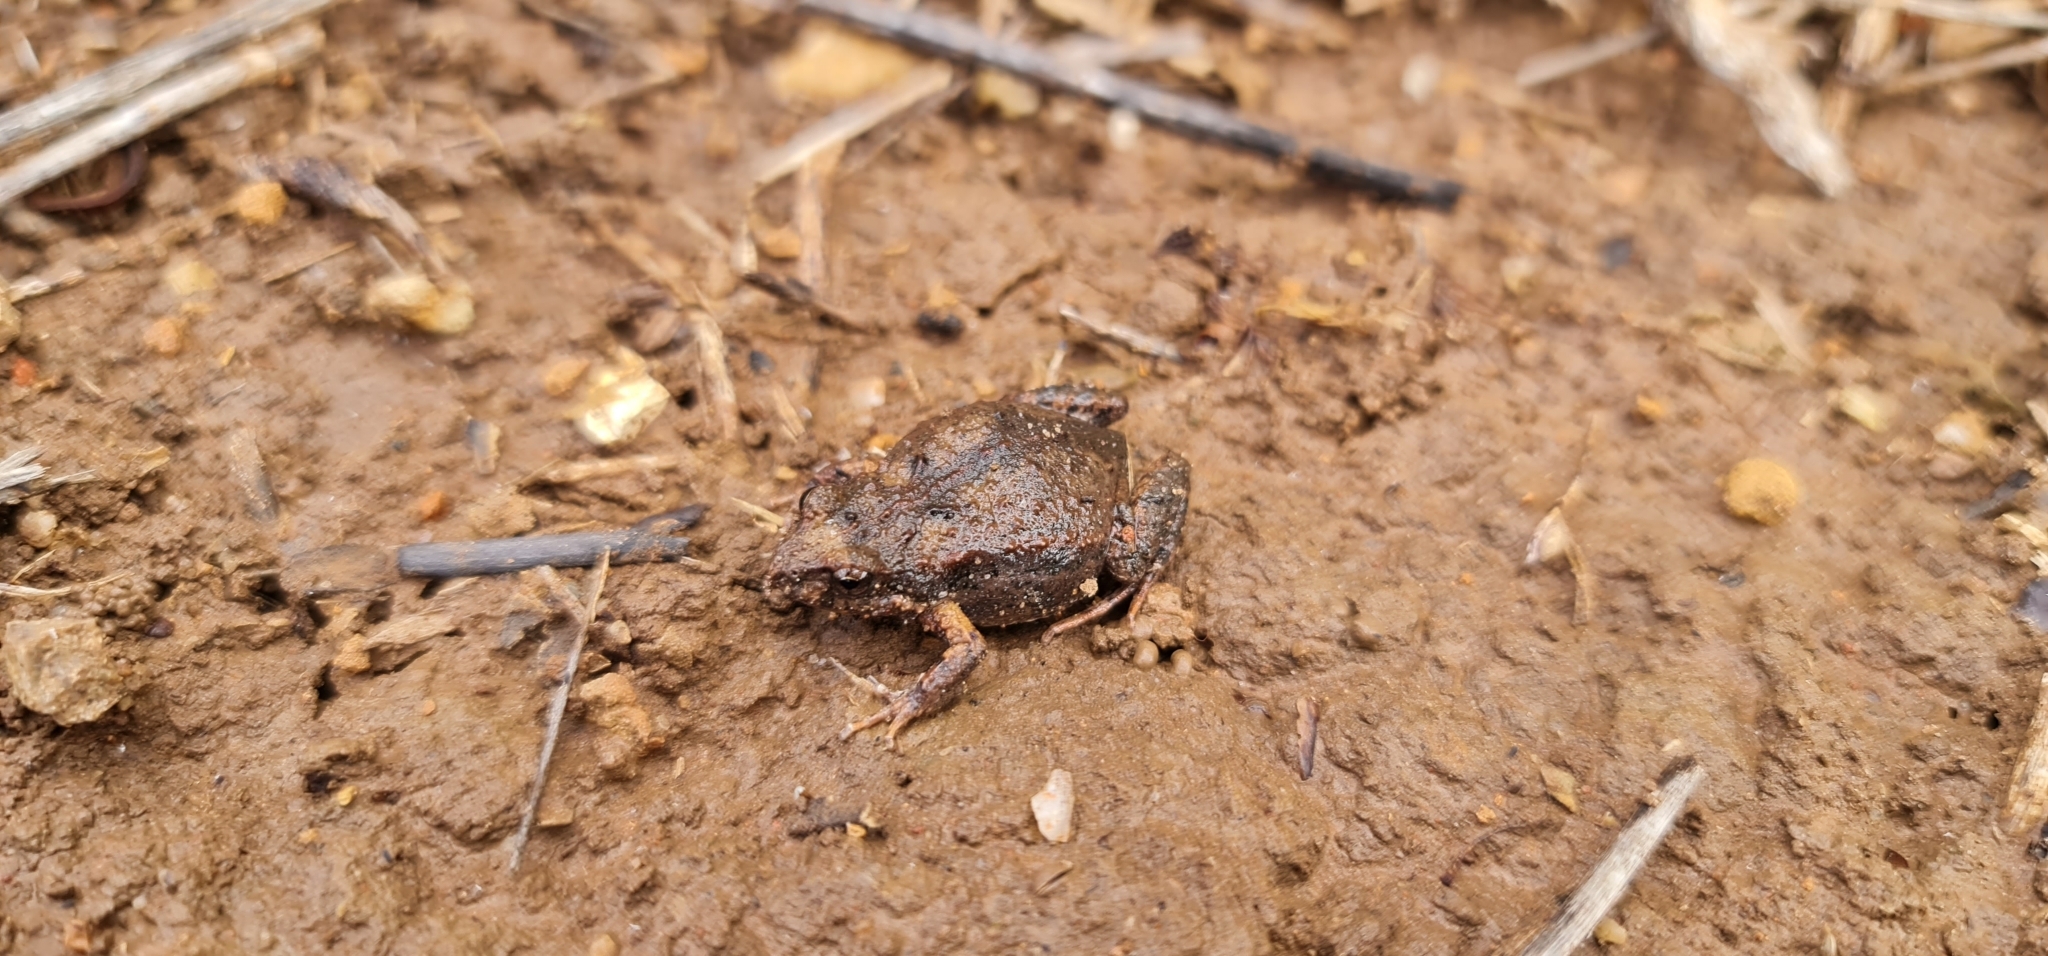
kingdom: Animalia
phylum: Chordata
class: Amphibia
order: Anura
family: Myobatrachidae
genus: Crinia
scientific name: Crinia signifera
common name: Brown froglet
